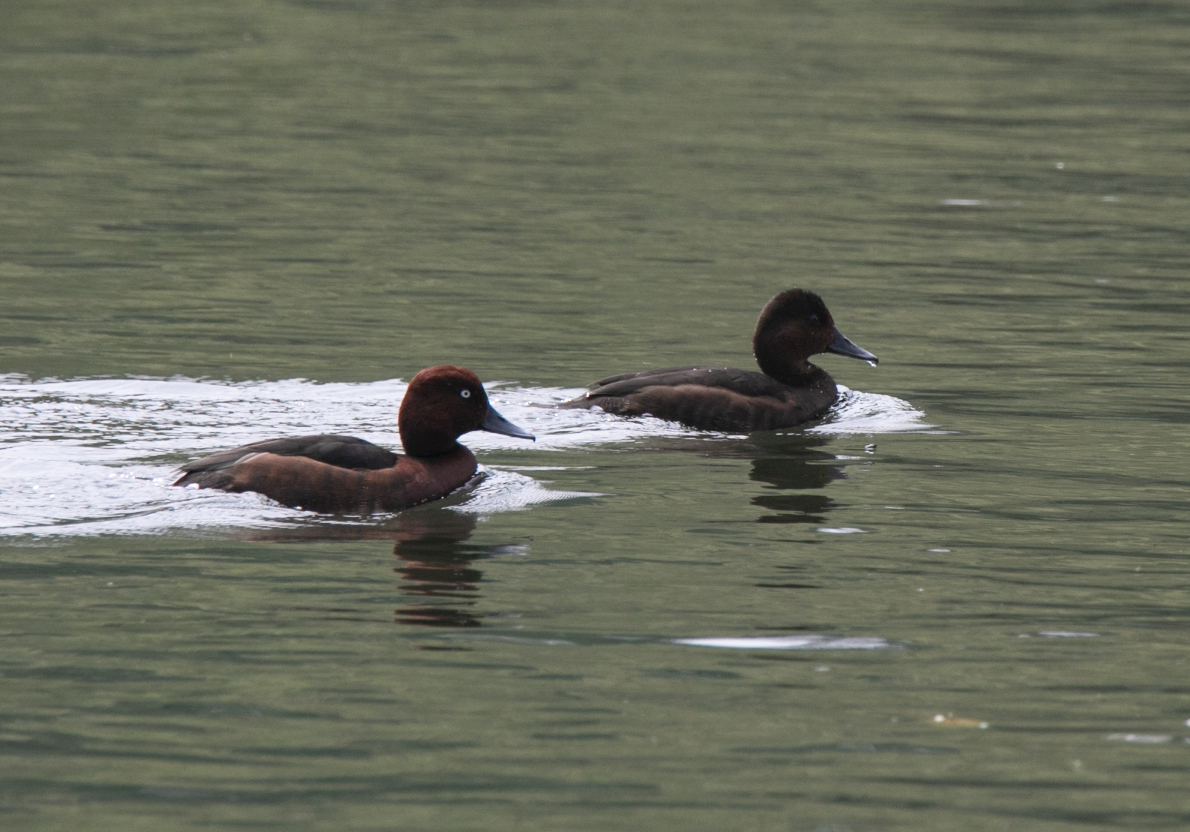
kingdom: Animalia
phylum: Chordata
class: Aves
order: Anseriformes
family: Anatidae
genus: Aythya
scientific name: Aythya nyroca
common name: Ferruginous duck
